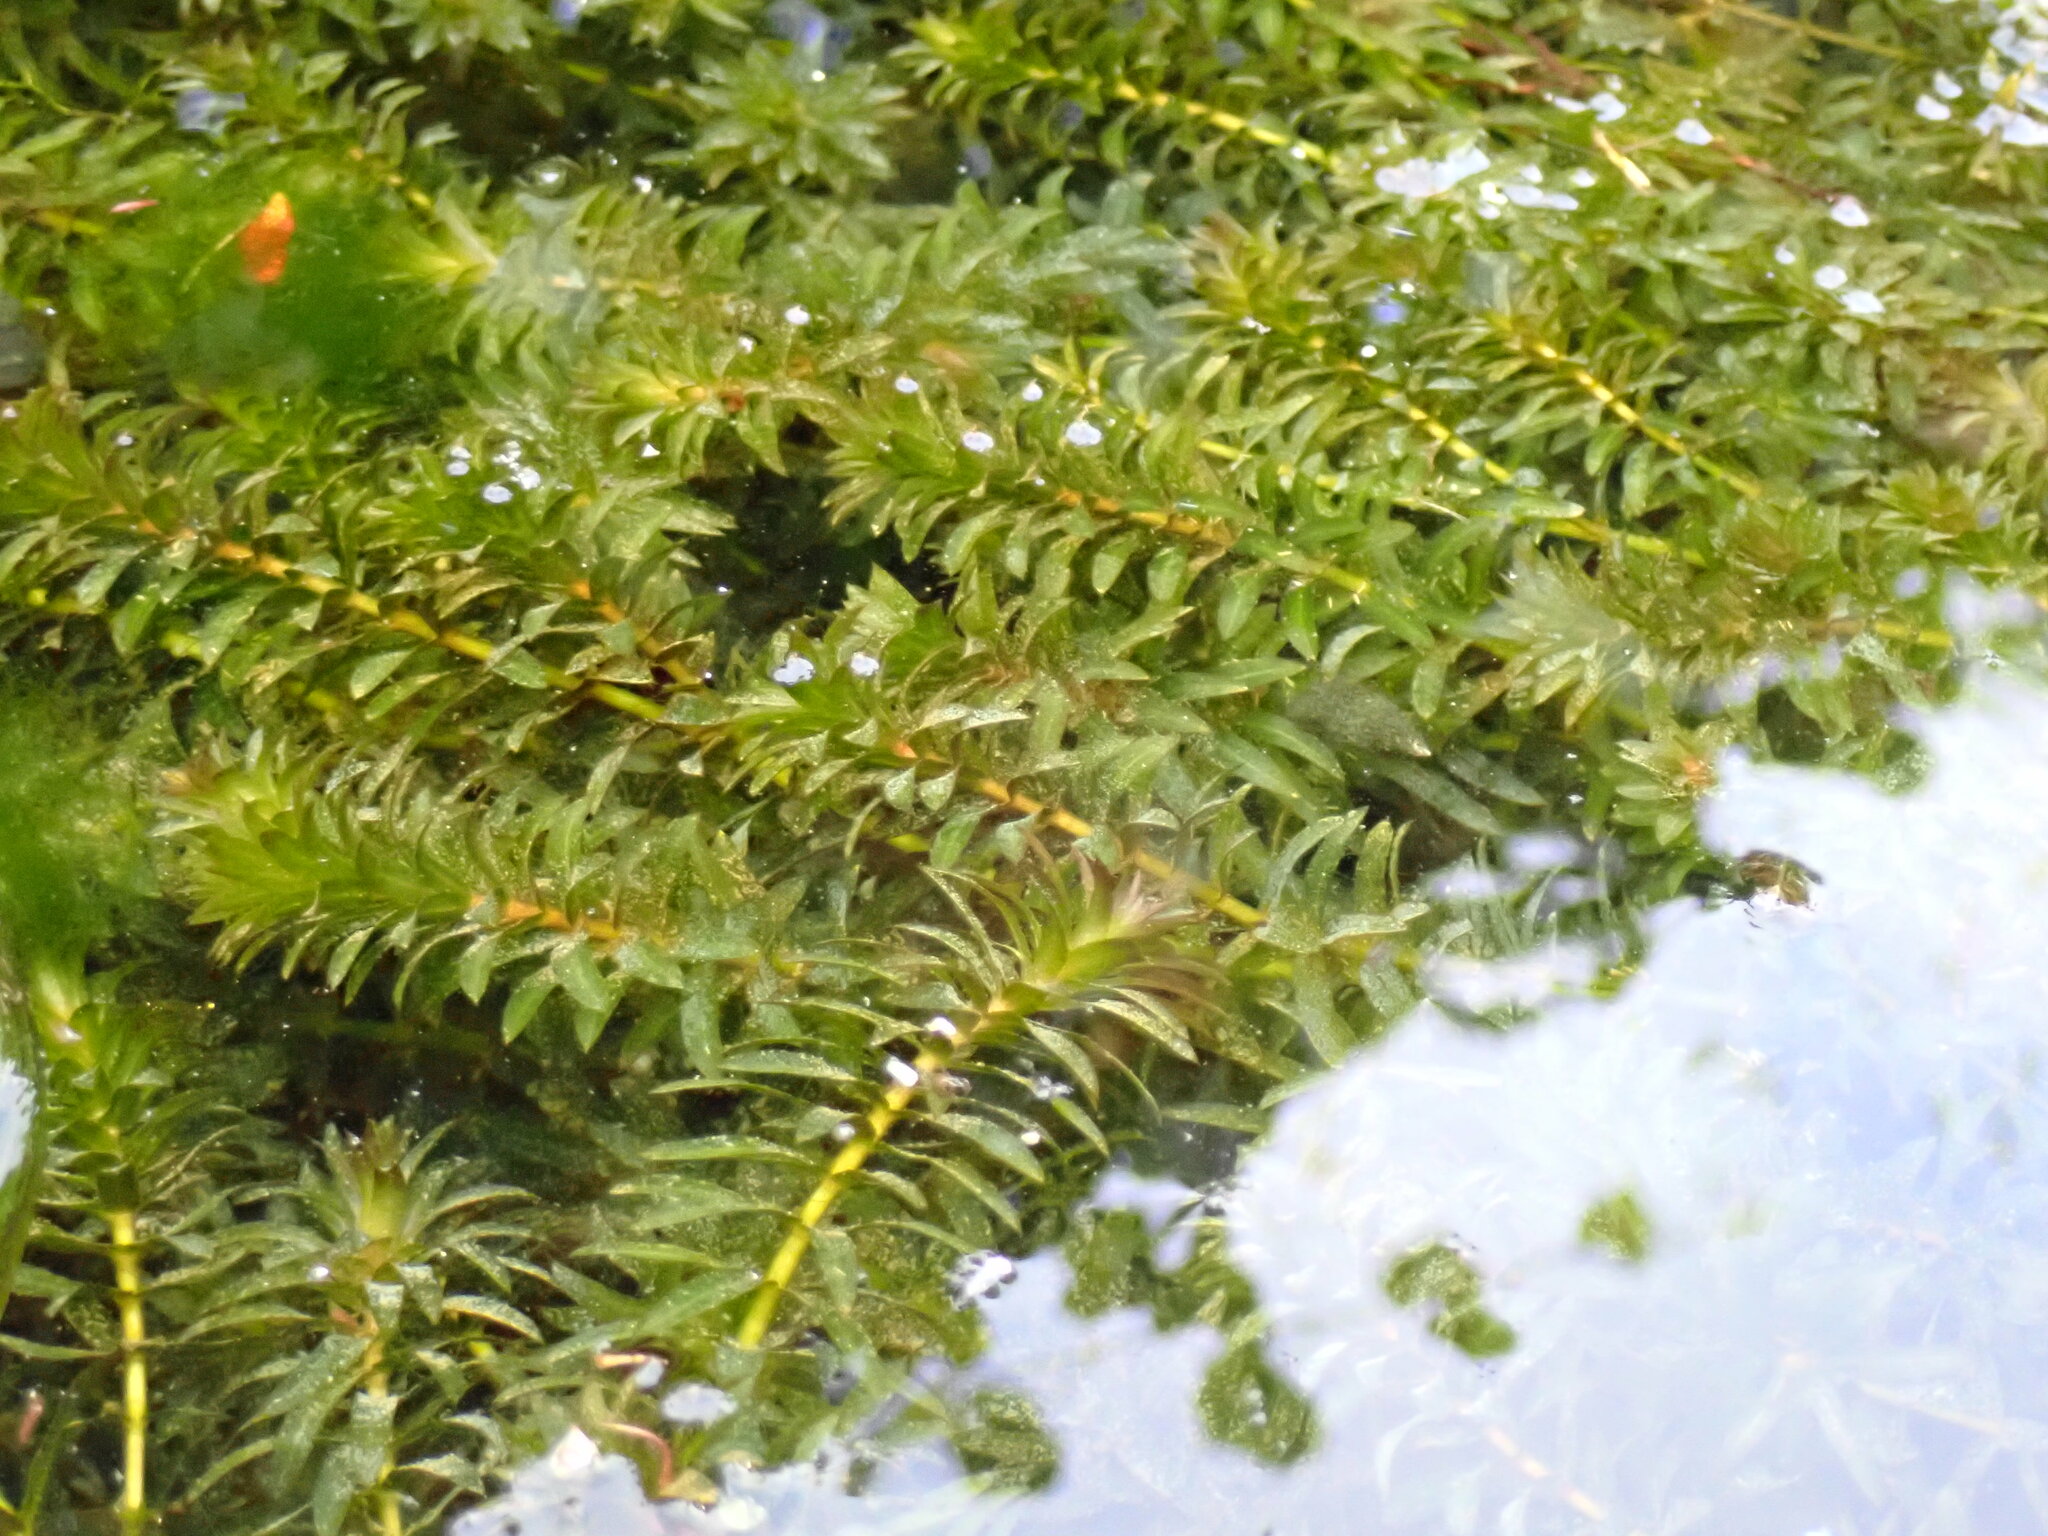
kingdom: Plantae
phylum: Tracheophyta
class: Liliopsida
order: Alismatales
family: Hydrocharitaceae
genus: Hydrilla
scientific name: Hydrilla verticillata
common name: Florida-elodea
